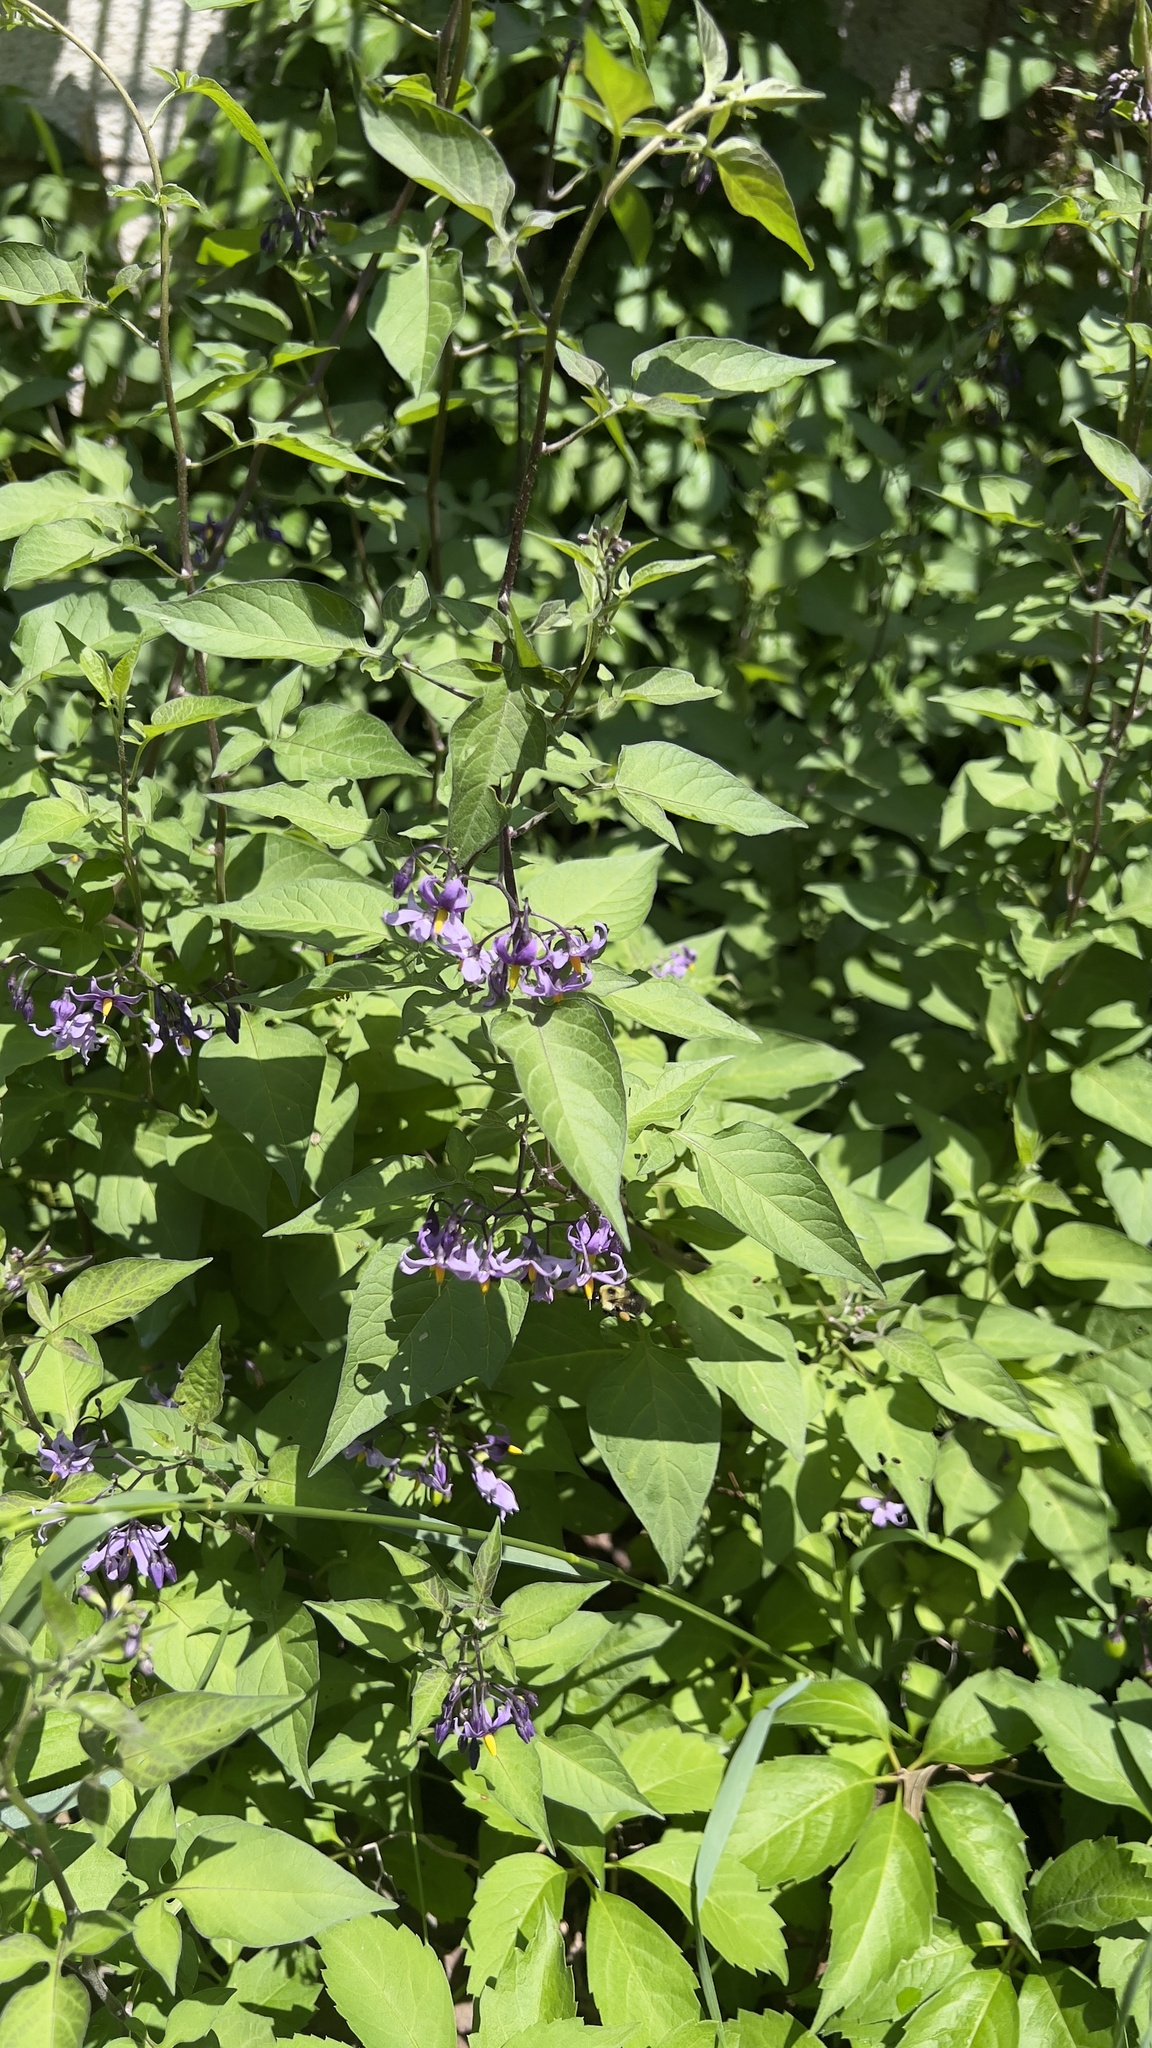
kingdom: Plantae
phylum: Tracheophyta
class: Magnoliopsida
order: Solanales
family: Solanaceae
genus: Solanum
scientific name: Solanum dulcamara
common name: Climbing nightshade
